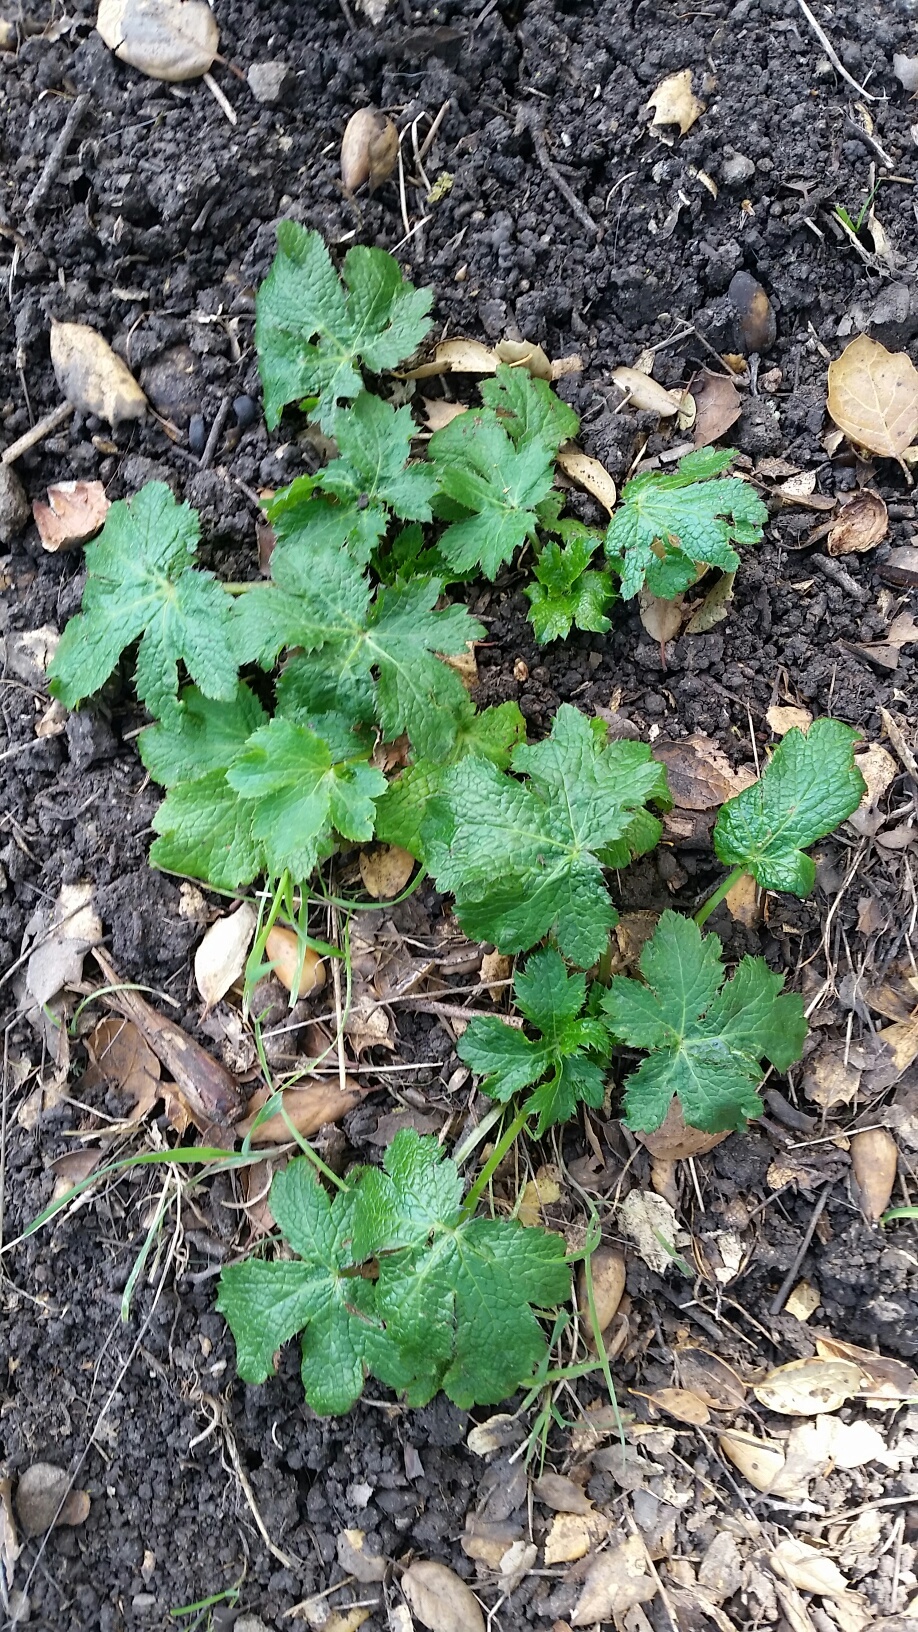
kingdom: Plantae
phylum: Tracheophyta
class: Magnoliopsida
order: Apiales
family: Apiaceae
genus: Sanicula
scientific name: Sanicula crassicaulis
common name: Western snakeroot
